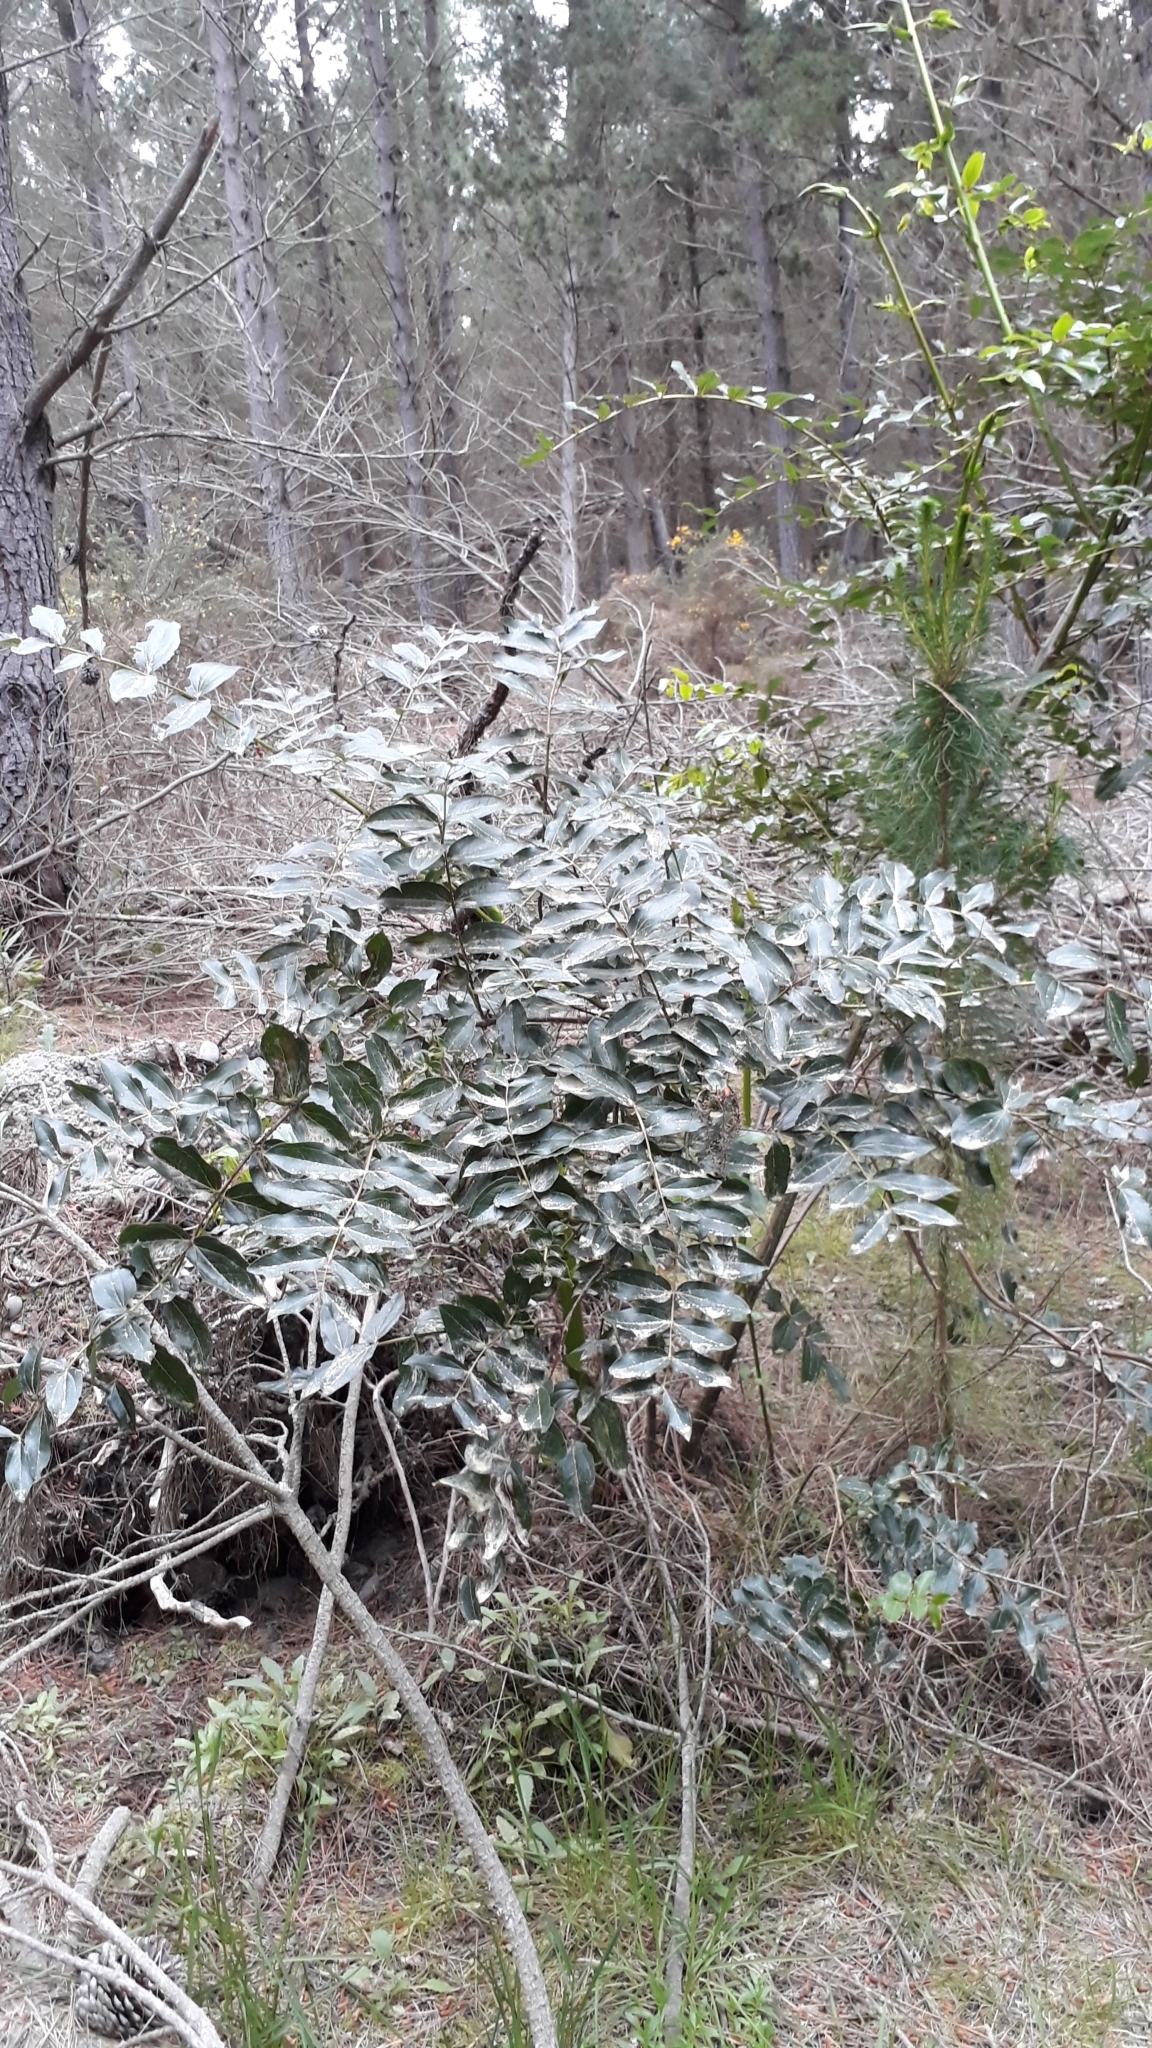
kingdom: Plantae
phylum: Tracheophyta
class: Magnoliopsida
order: Cucurbitales
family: Coriariaceae
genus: Coriaria
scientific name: Coriaria arborea
